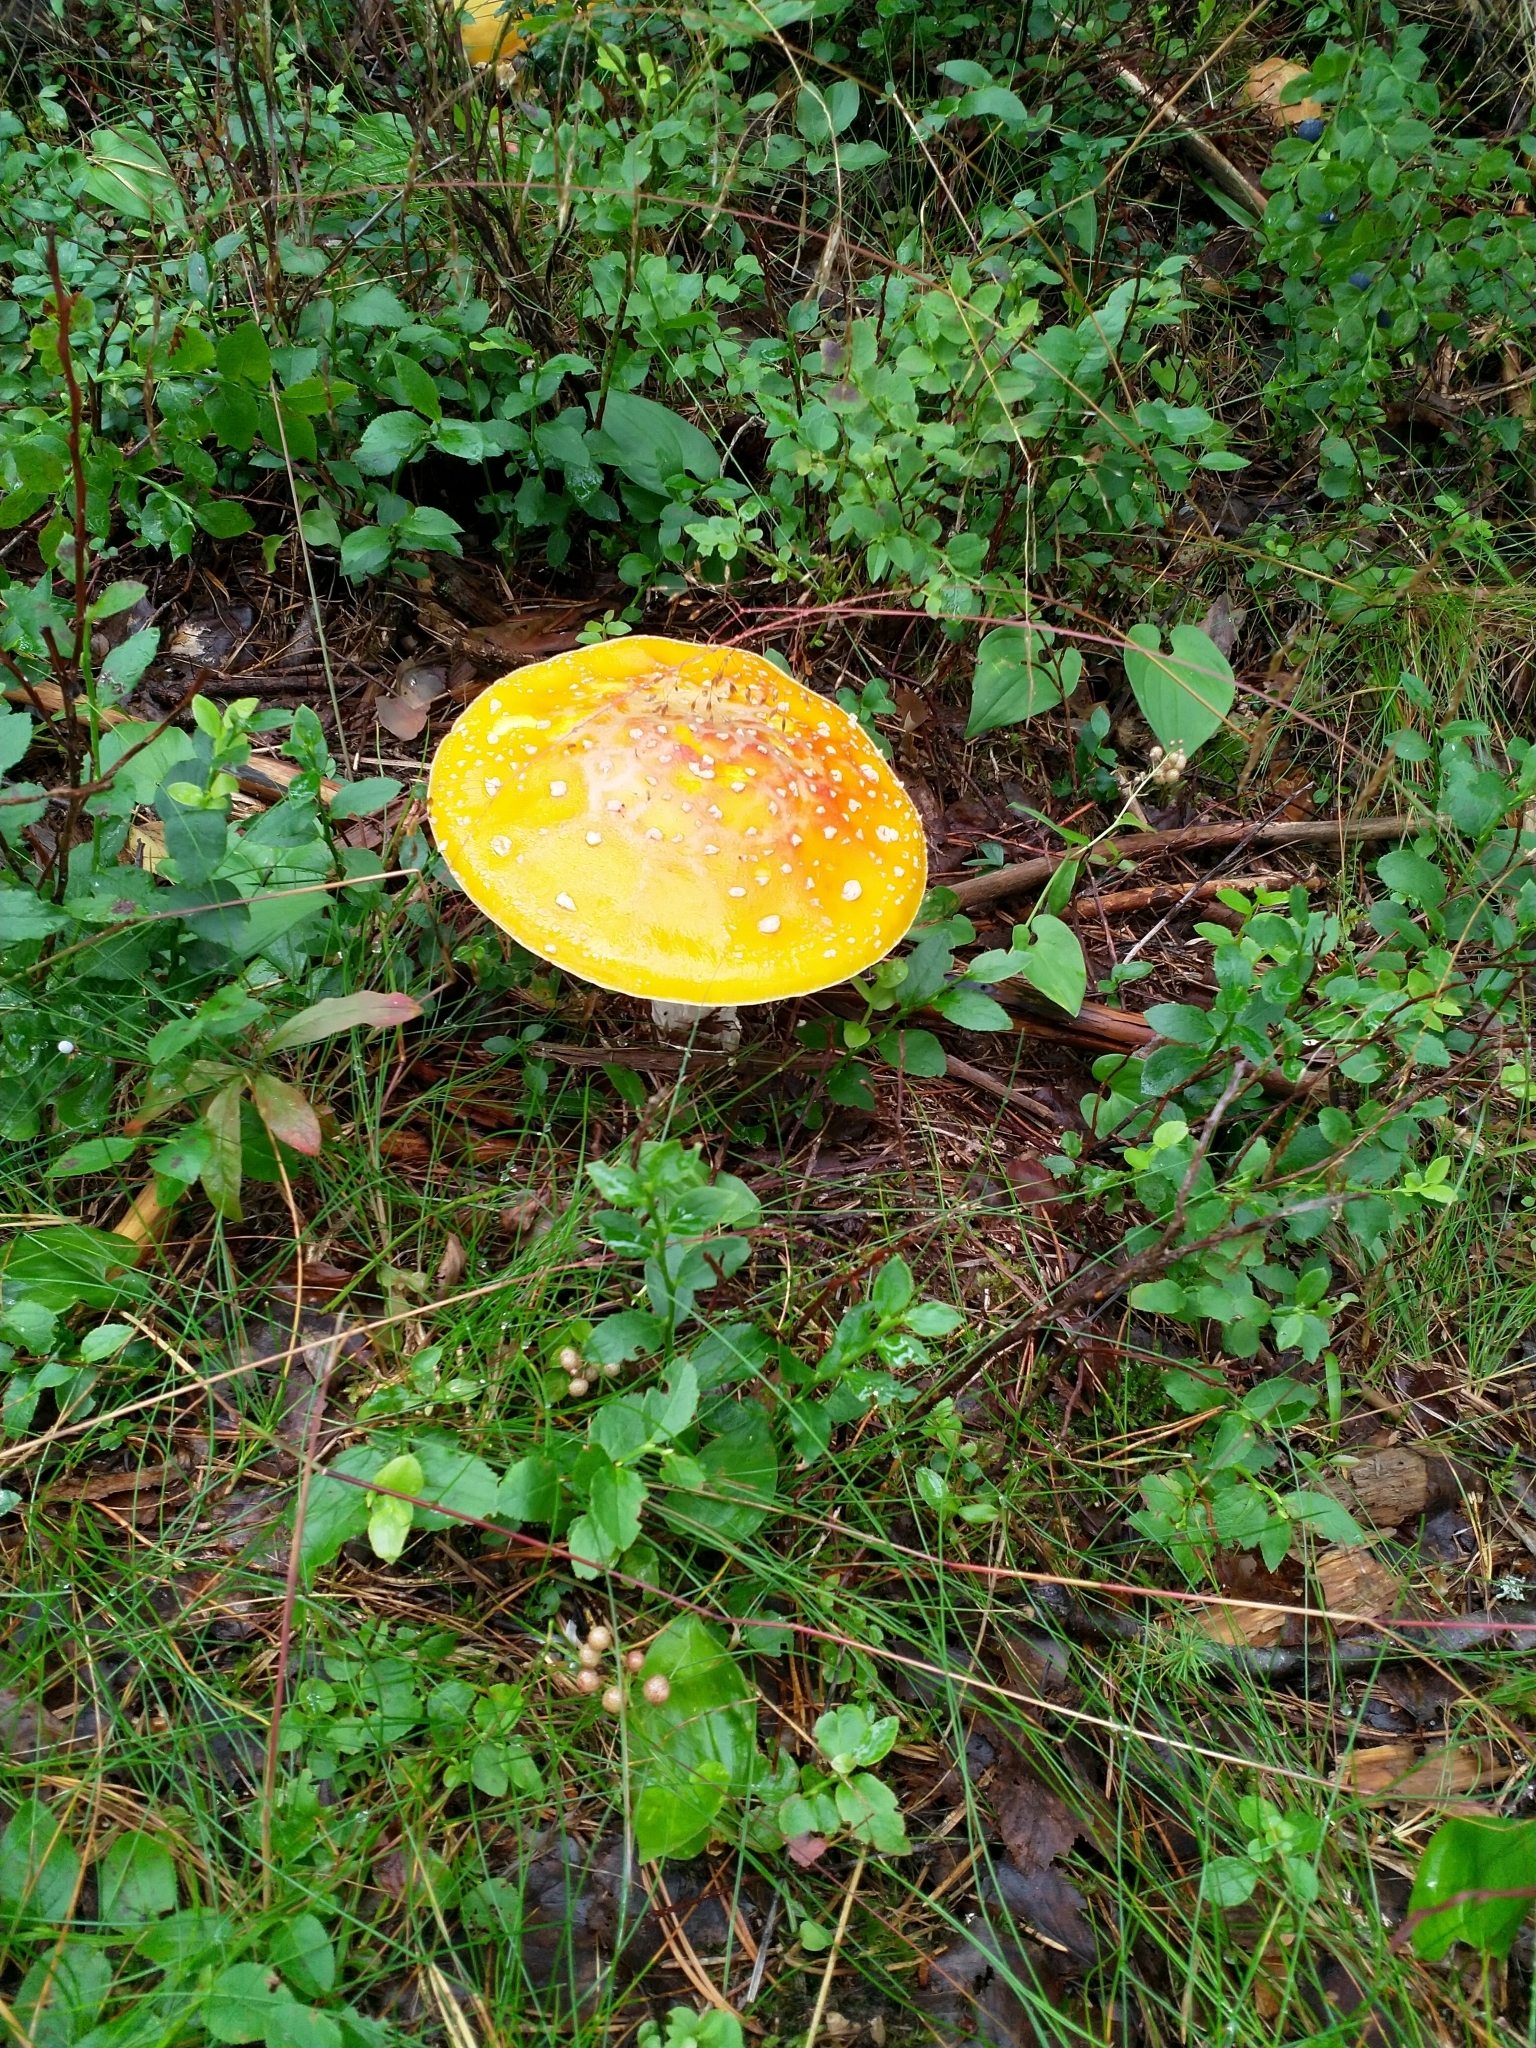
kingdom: Fungi
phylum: Basidiomycota
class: Agaricomycetes
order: Agaricales
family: Amanitaceae
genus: Amanita
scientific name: Amanita muscaria
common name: Fly agaric
